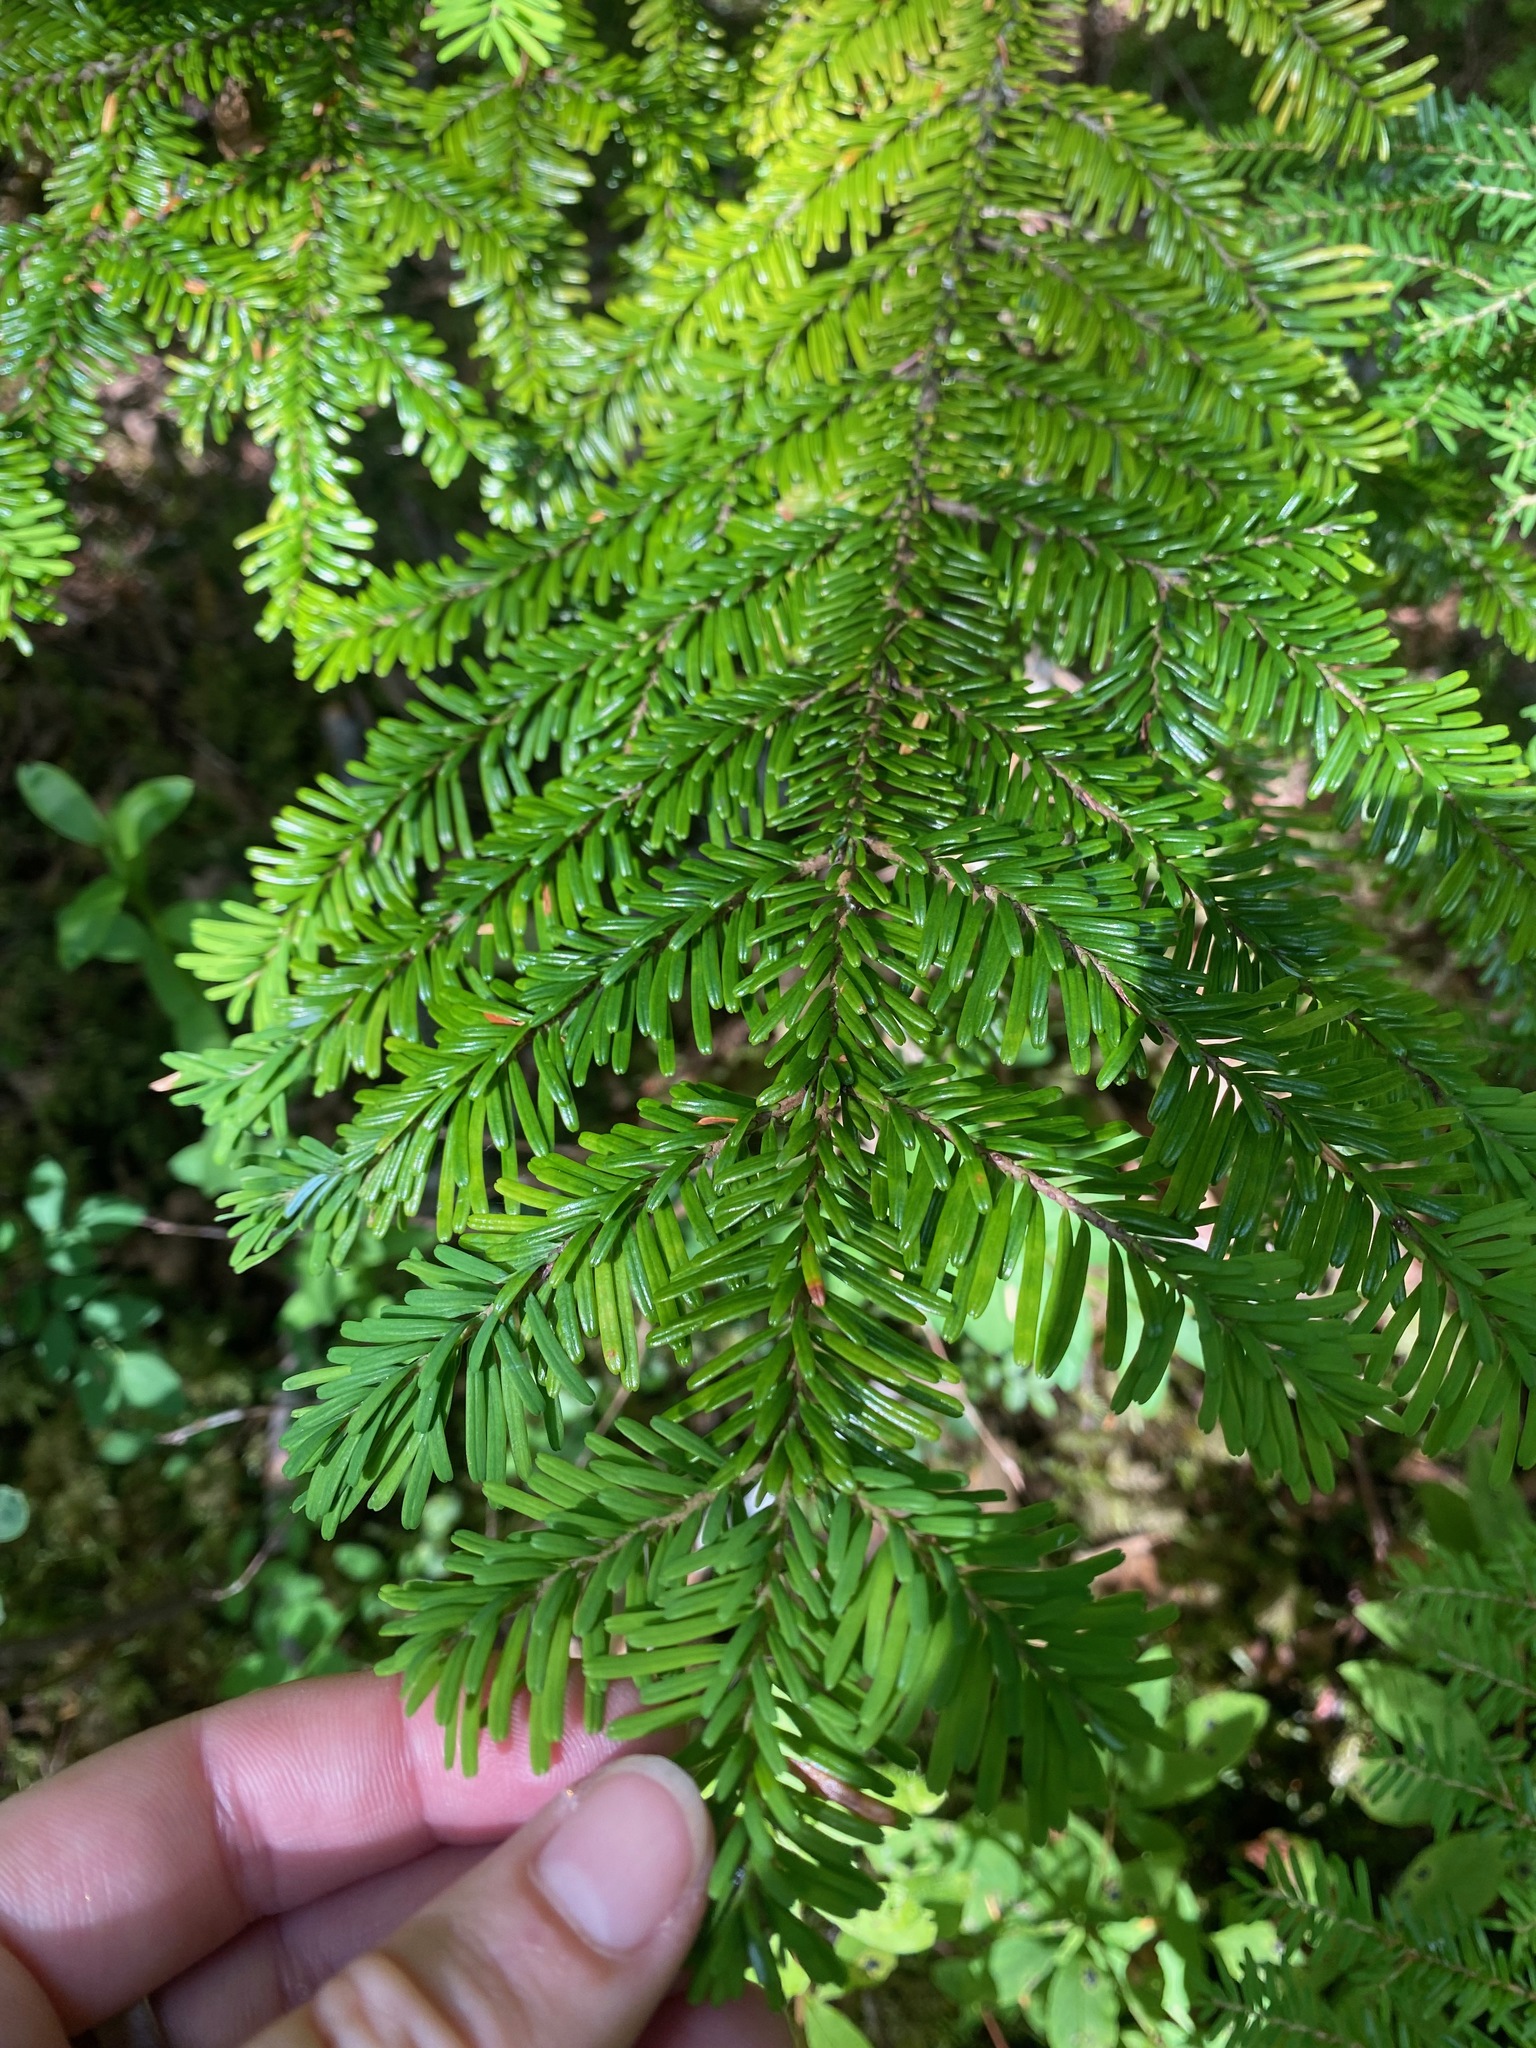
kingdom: Plantae
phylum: Tracheophyta
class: Pinopsida
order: Pinales
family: Pinaceae
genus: Abies
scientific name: Abies amabilis
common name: Pacific silver fir
